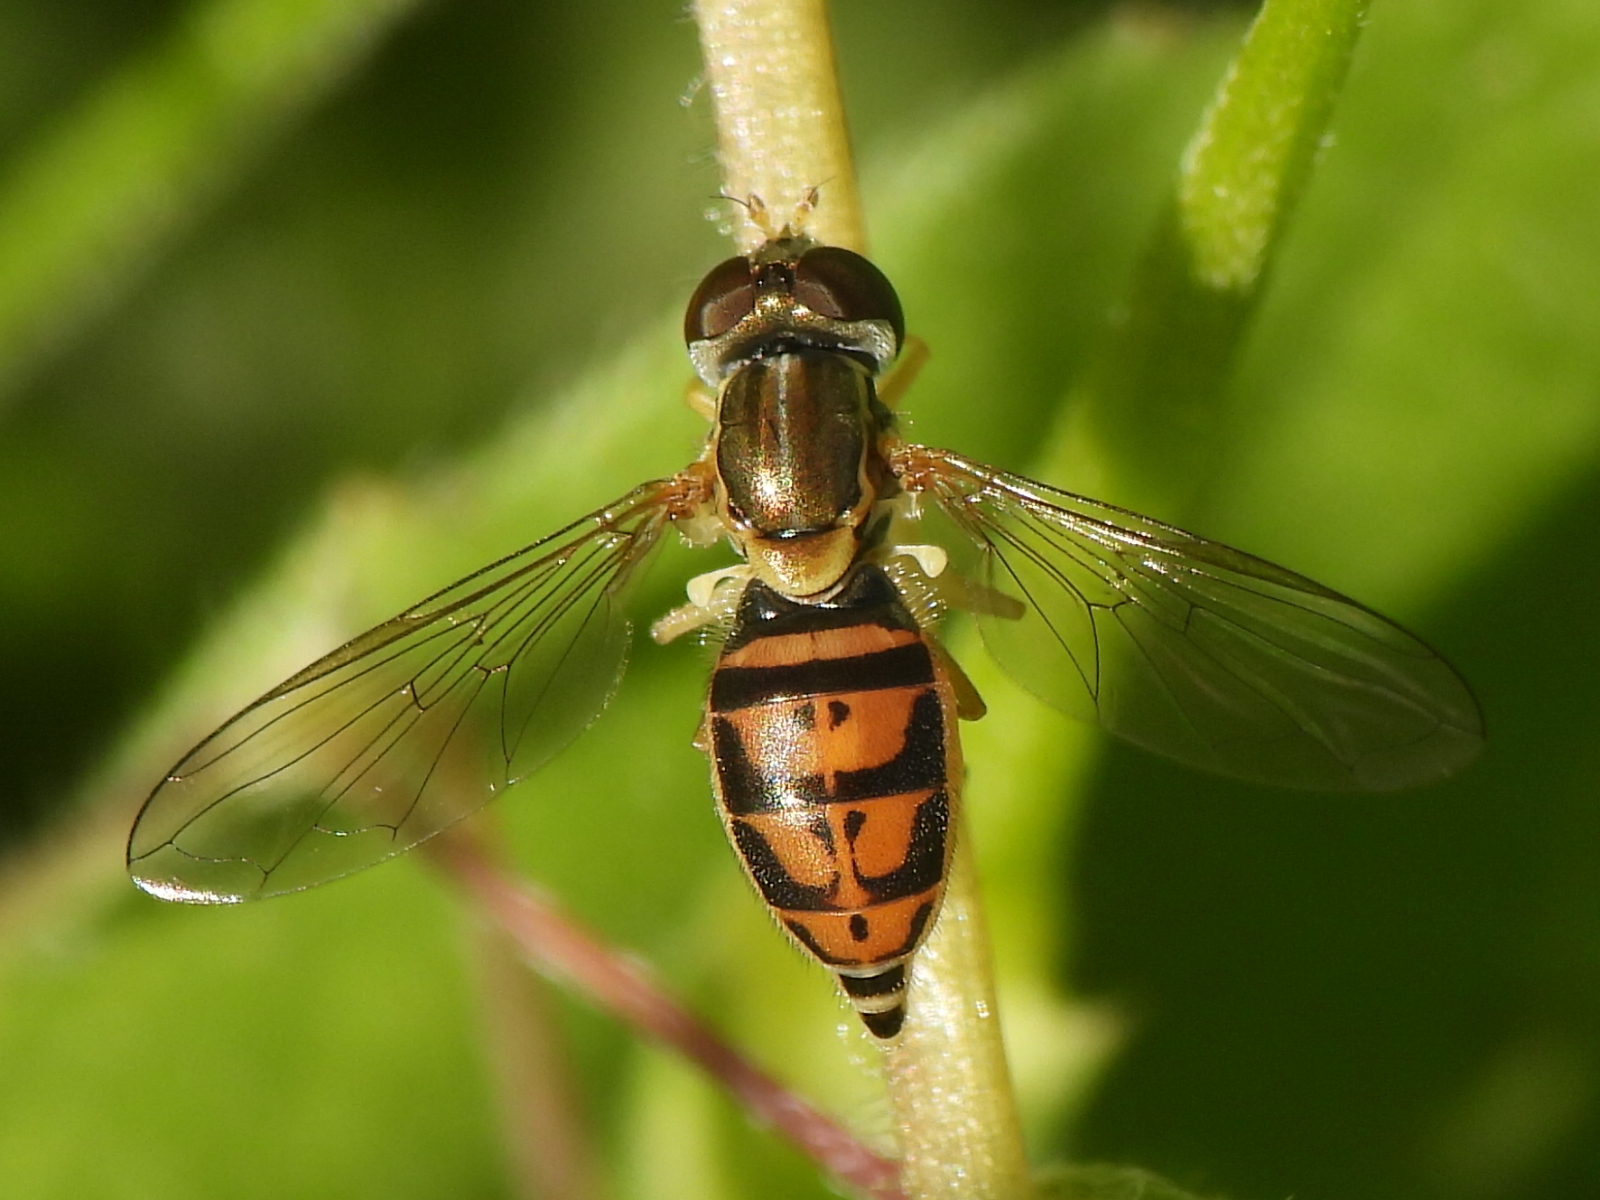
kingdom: Animalia
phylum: Arthropoda
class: Insecta
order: Diptera
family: Syrphidae
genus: Toxomerus
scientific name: Toxomerus marginatus
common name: Syrphid fly
